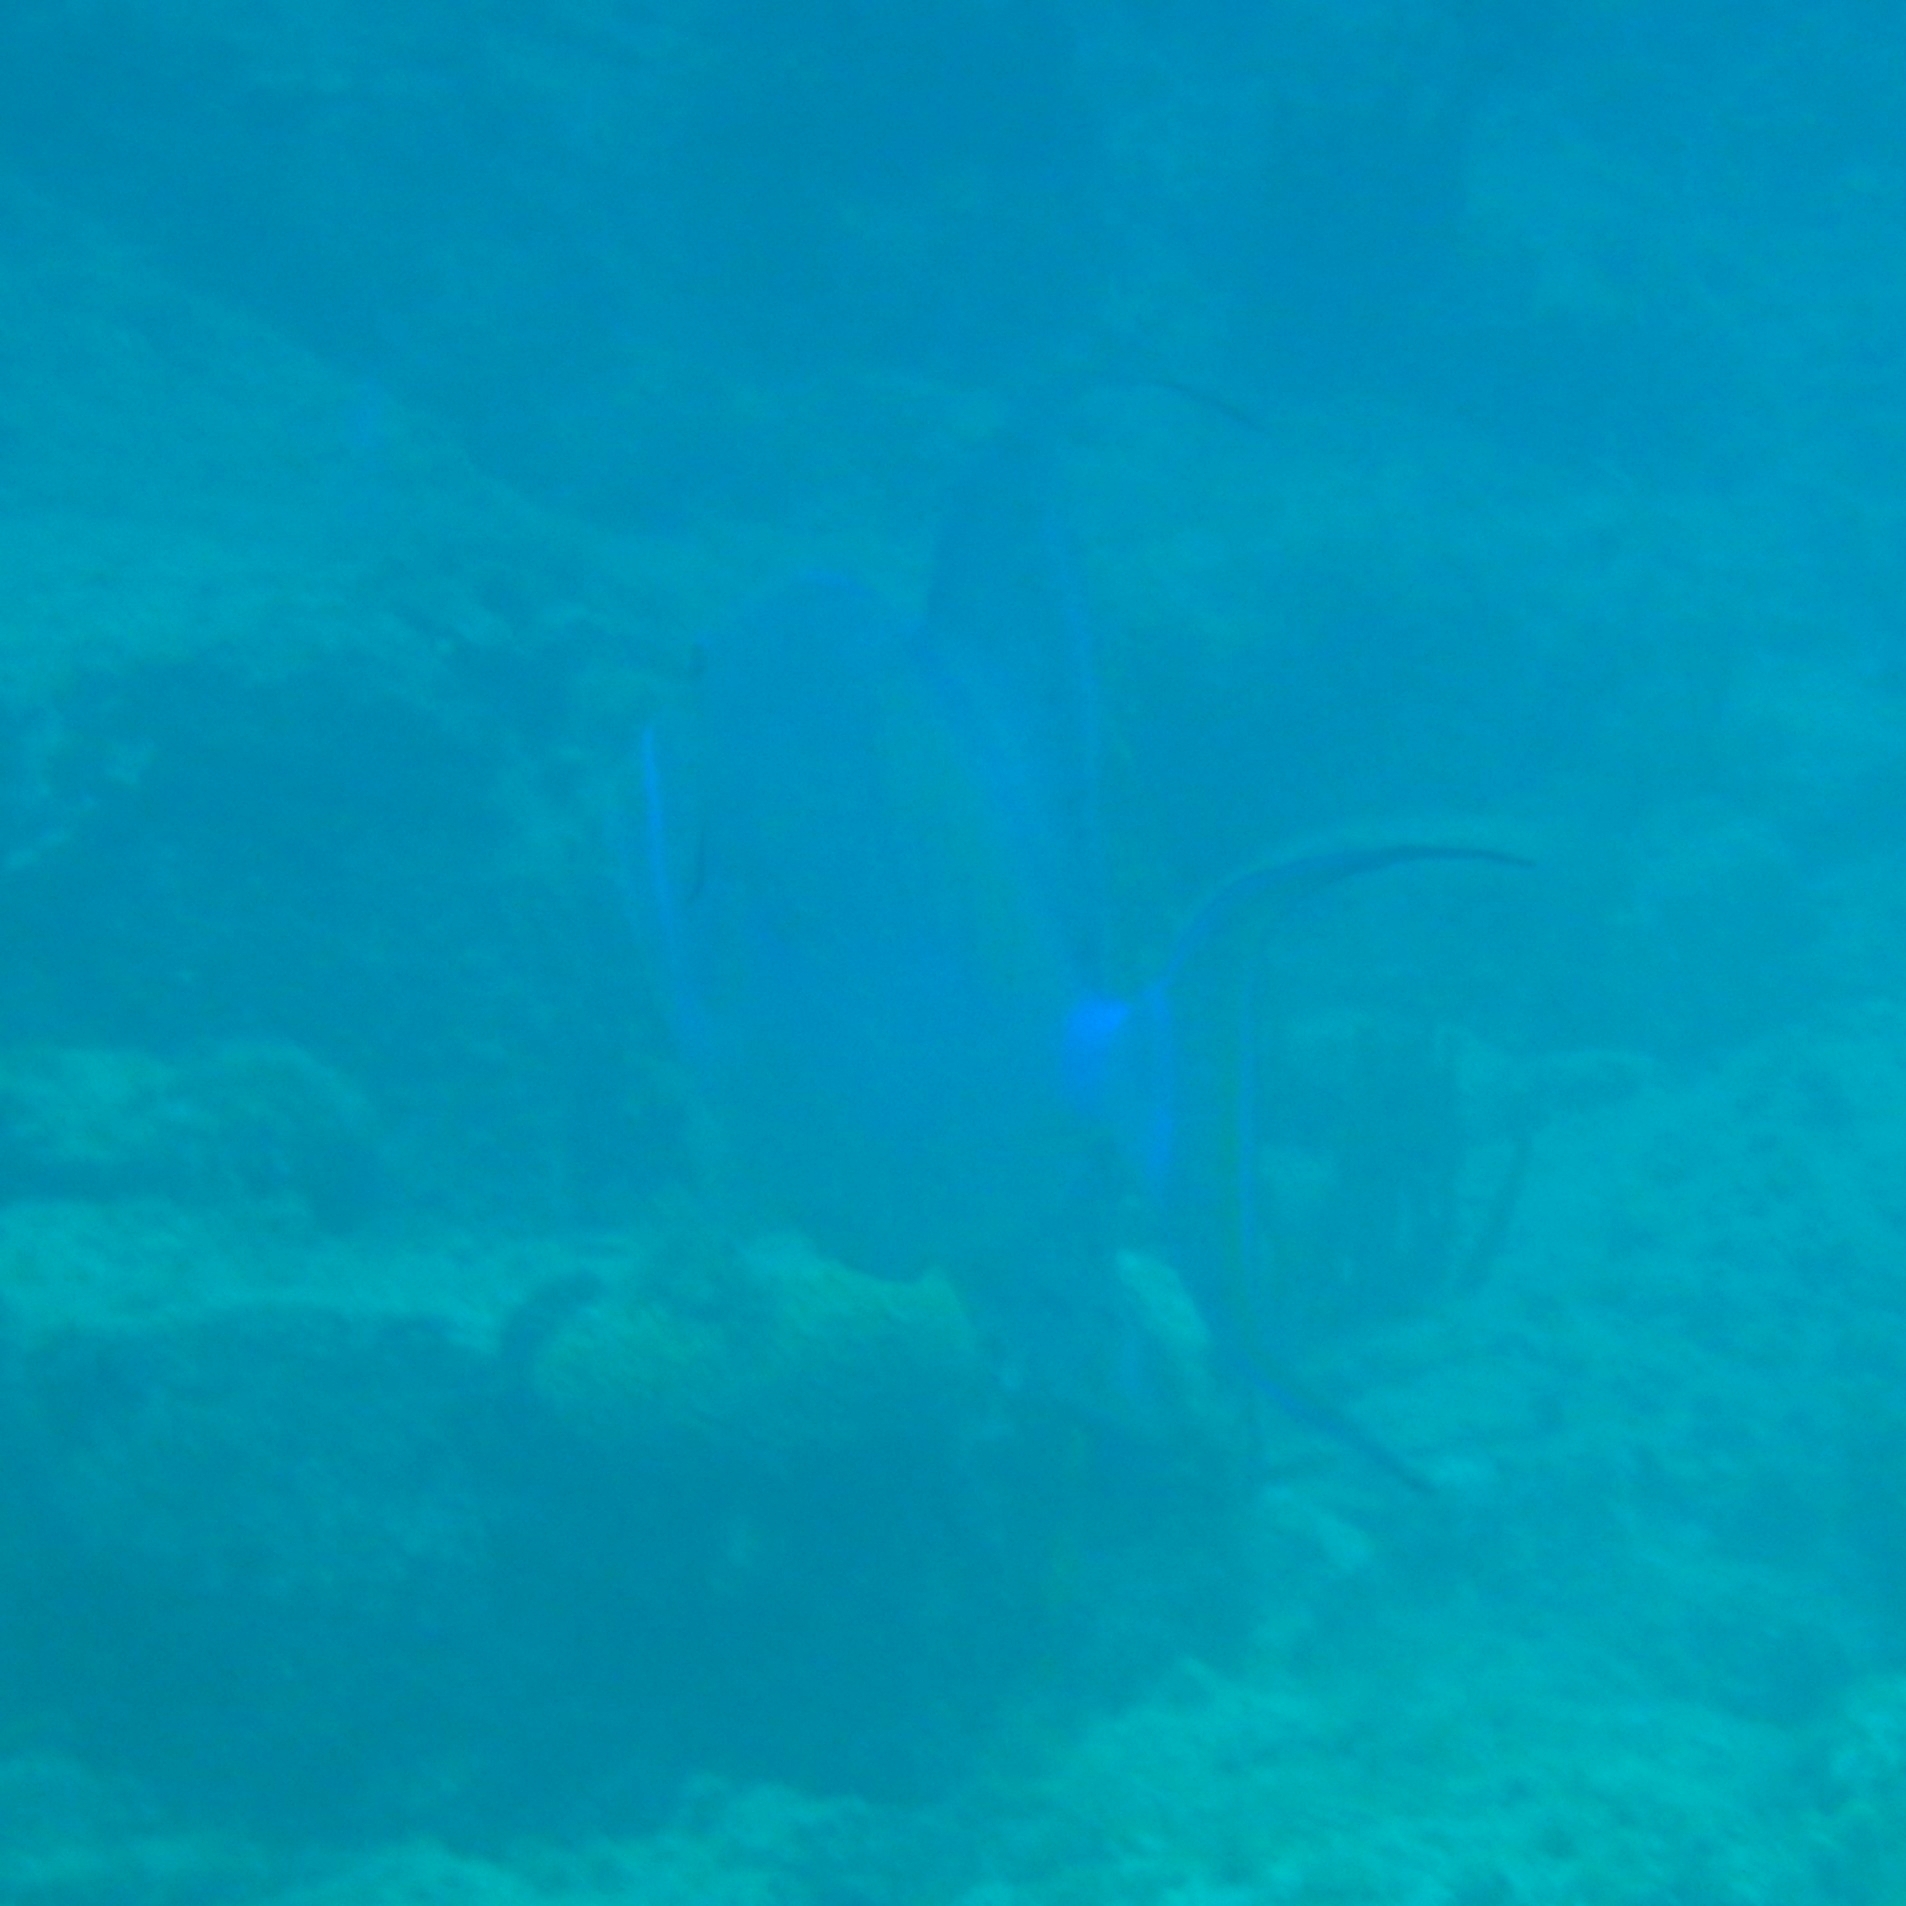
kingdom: Animalia
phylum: Chordata
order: Tetraodontiformes
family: Balistidae
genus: Balistes
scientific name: Balistes vetula
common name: Queen triggerfish
